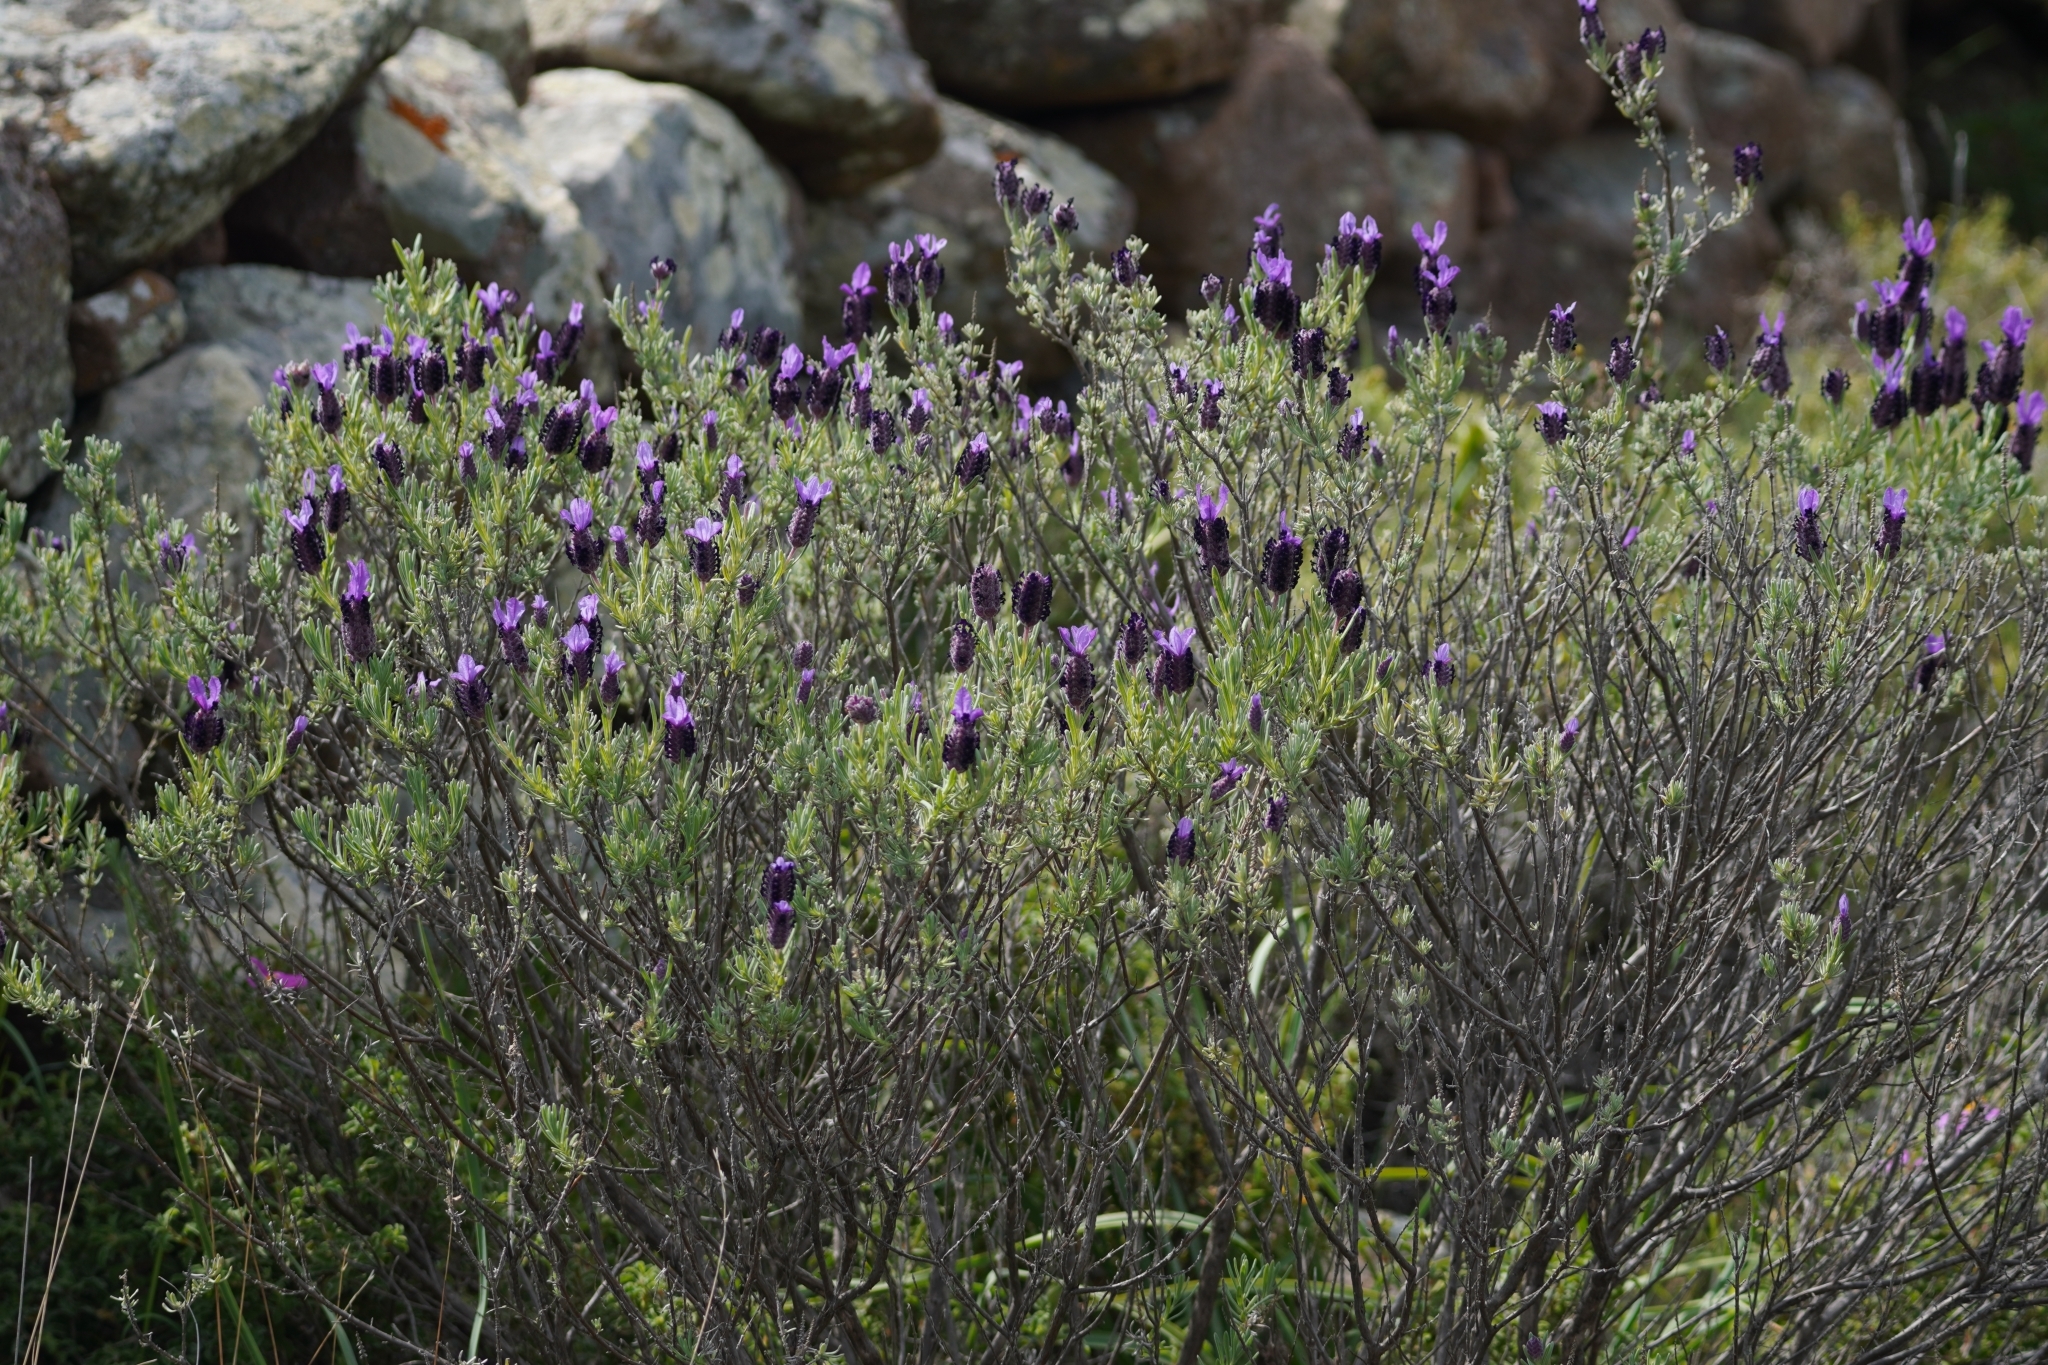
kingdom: Plantae
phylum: Tracheophyta
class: Magnoliopsida
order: Lamiales
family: Lamiaceae
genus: Lavandula
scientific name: Lavandula stoechas
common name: French lavender
